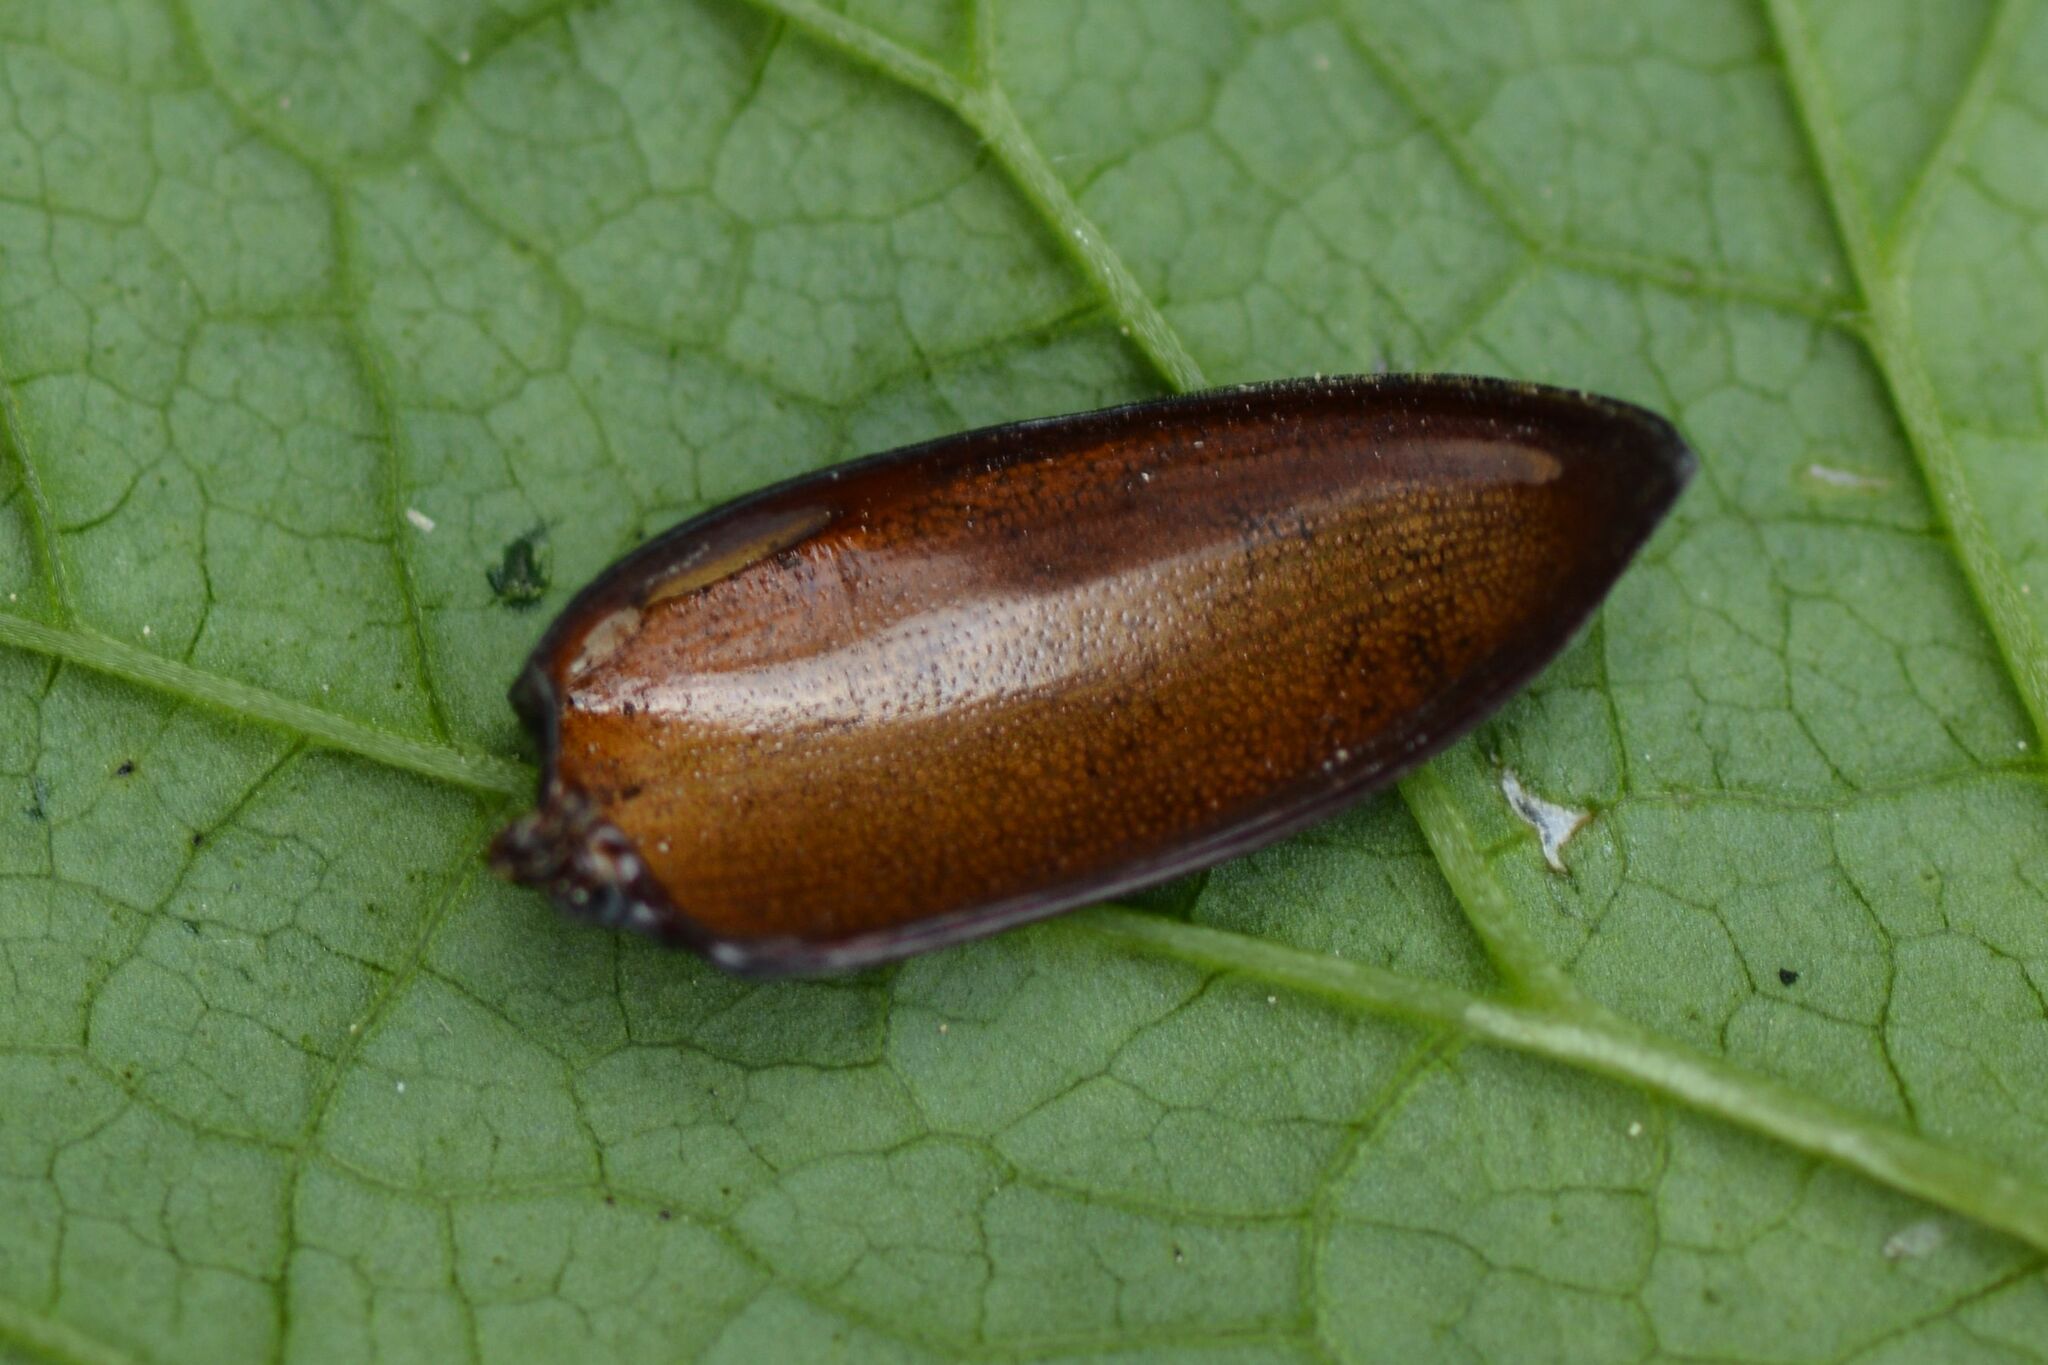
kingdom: Animalia
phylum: Arthropoda
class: Insecta
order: Coleoptera
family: Lucanidae
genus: Dorcus
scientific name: Dorcus parallelipipedus
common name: Lesser stag beetle
